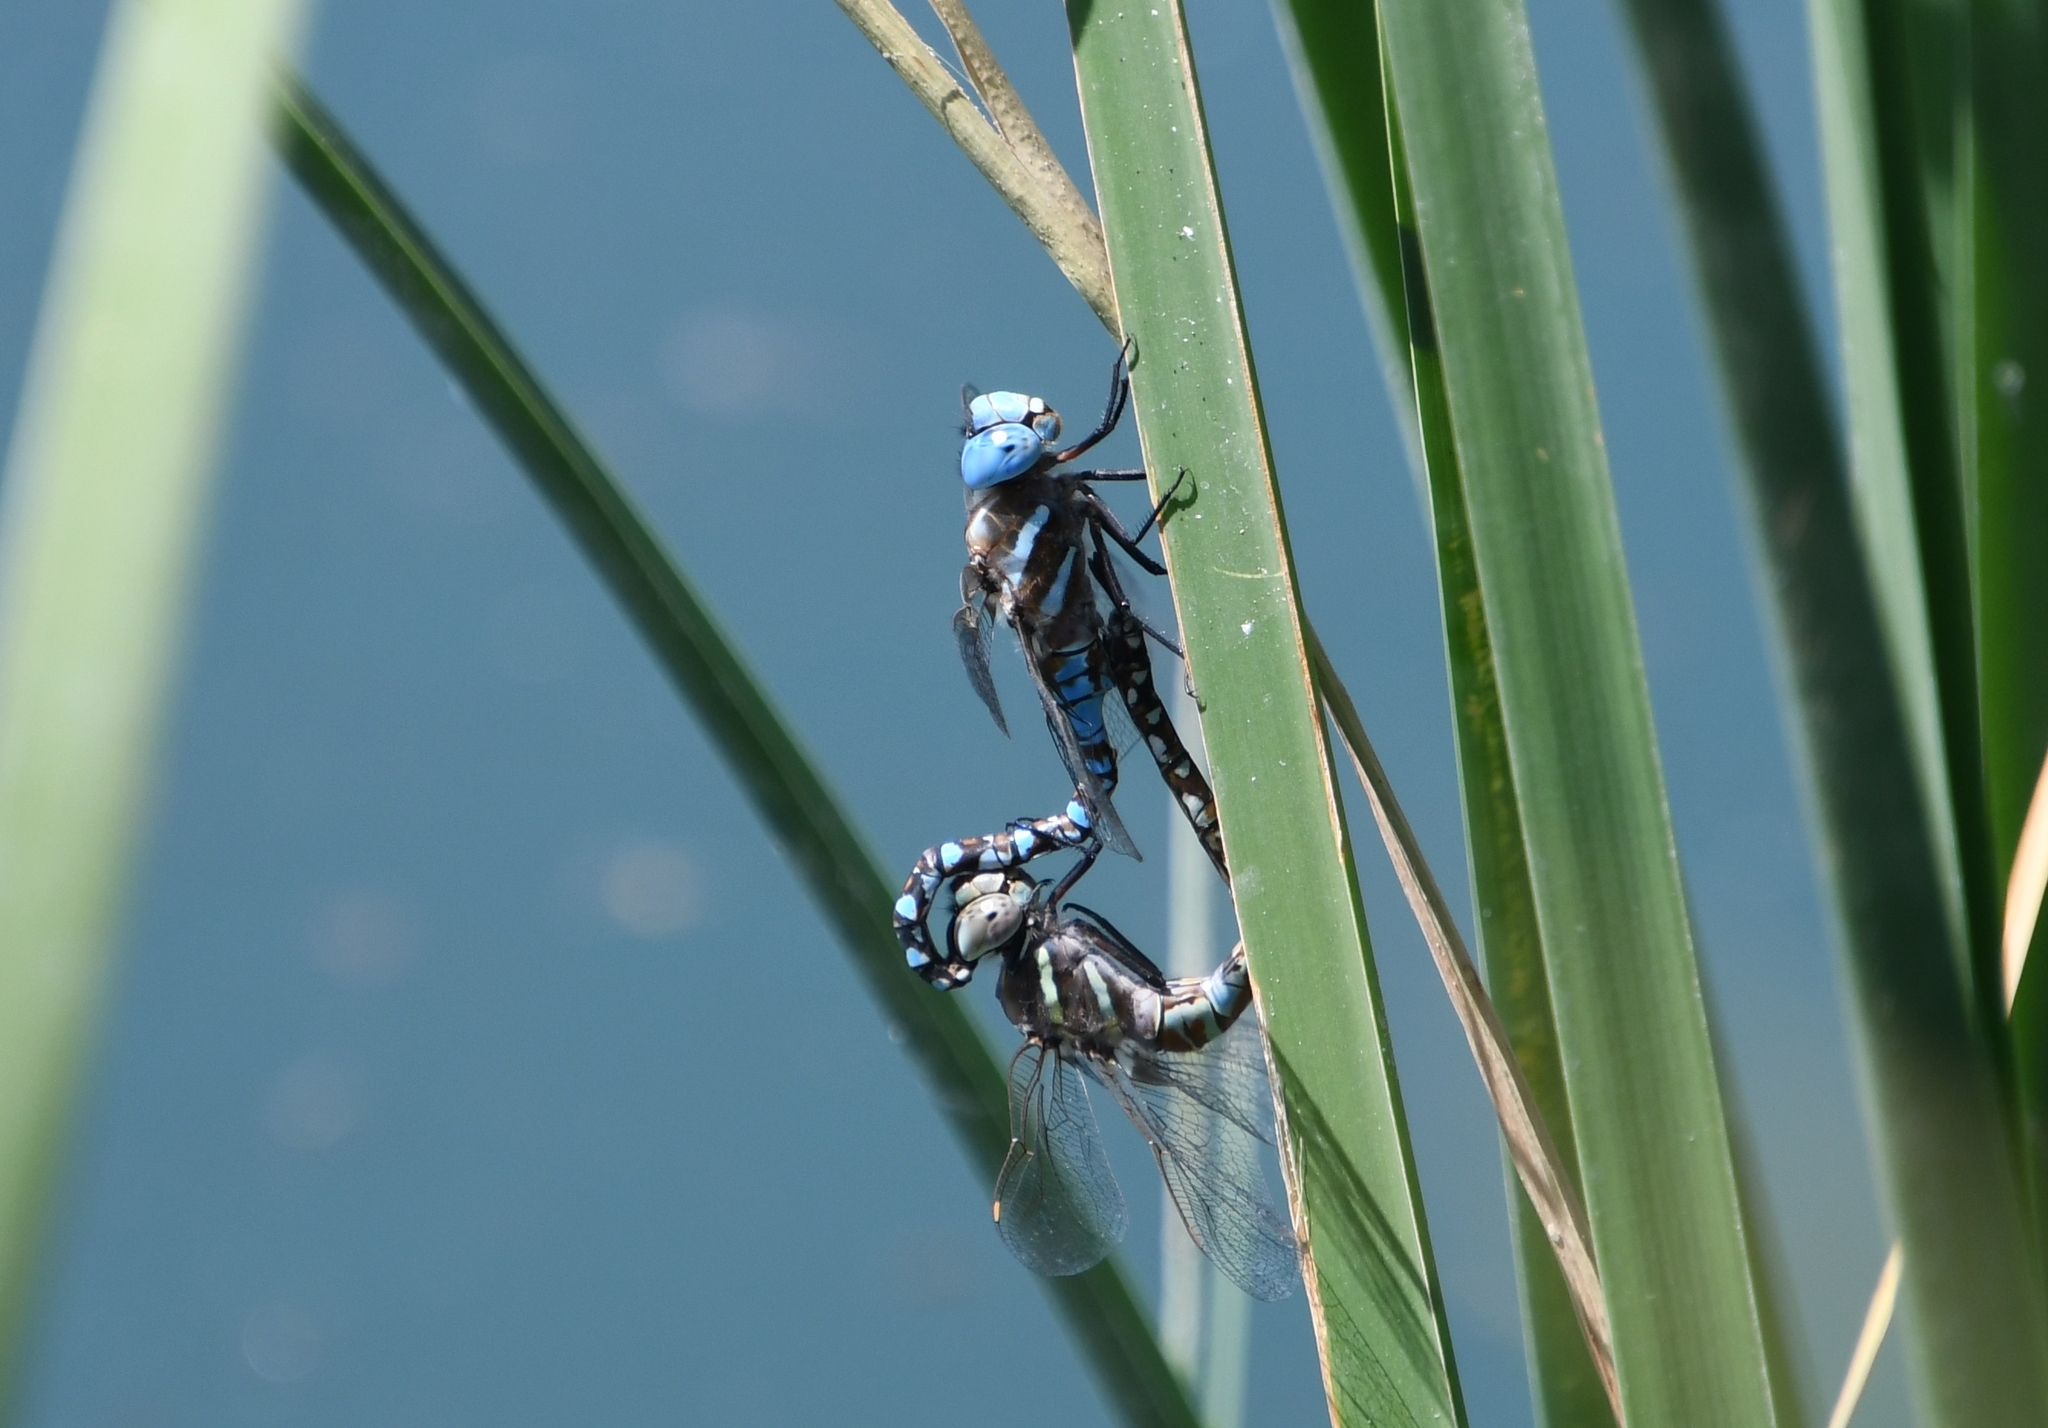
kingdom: Animalia
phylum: Arthropoda
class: Insecta
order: Odonata
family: Aeshnidae
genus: Rhionaeschna
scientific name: Rhionaeschna multicolor
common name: Blue-eyed darner
